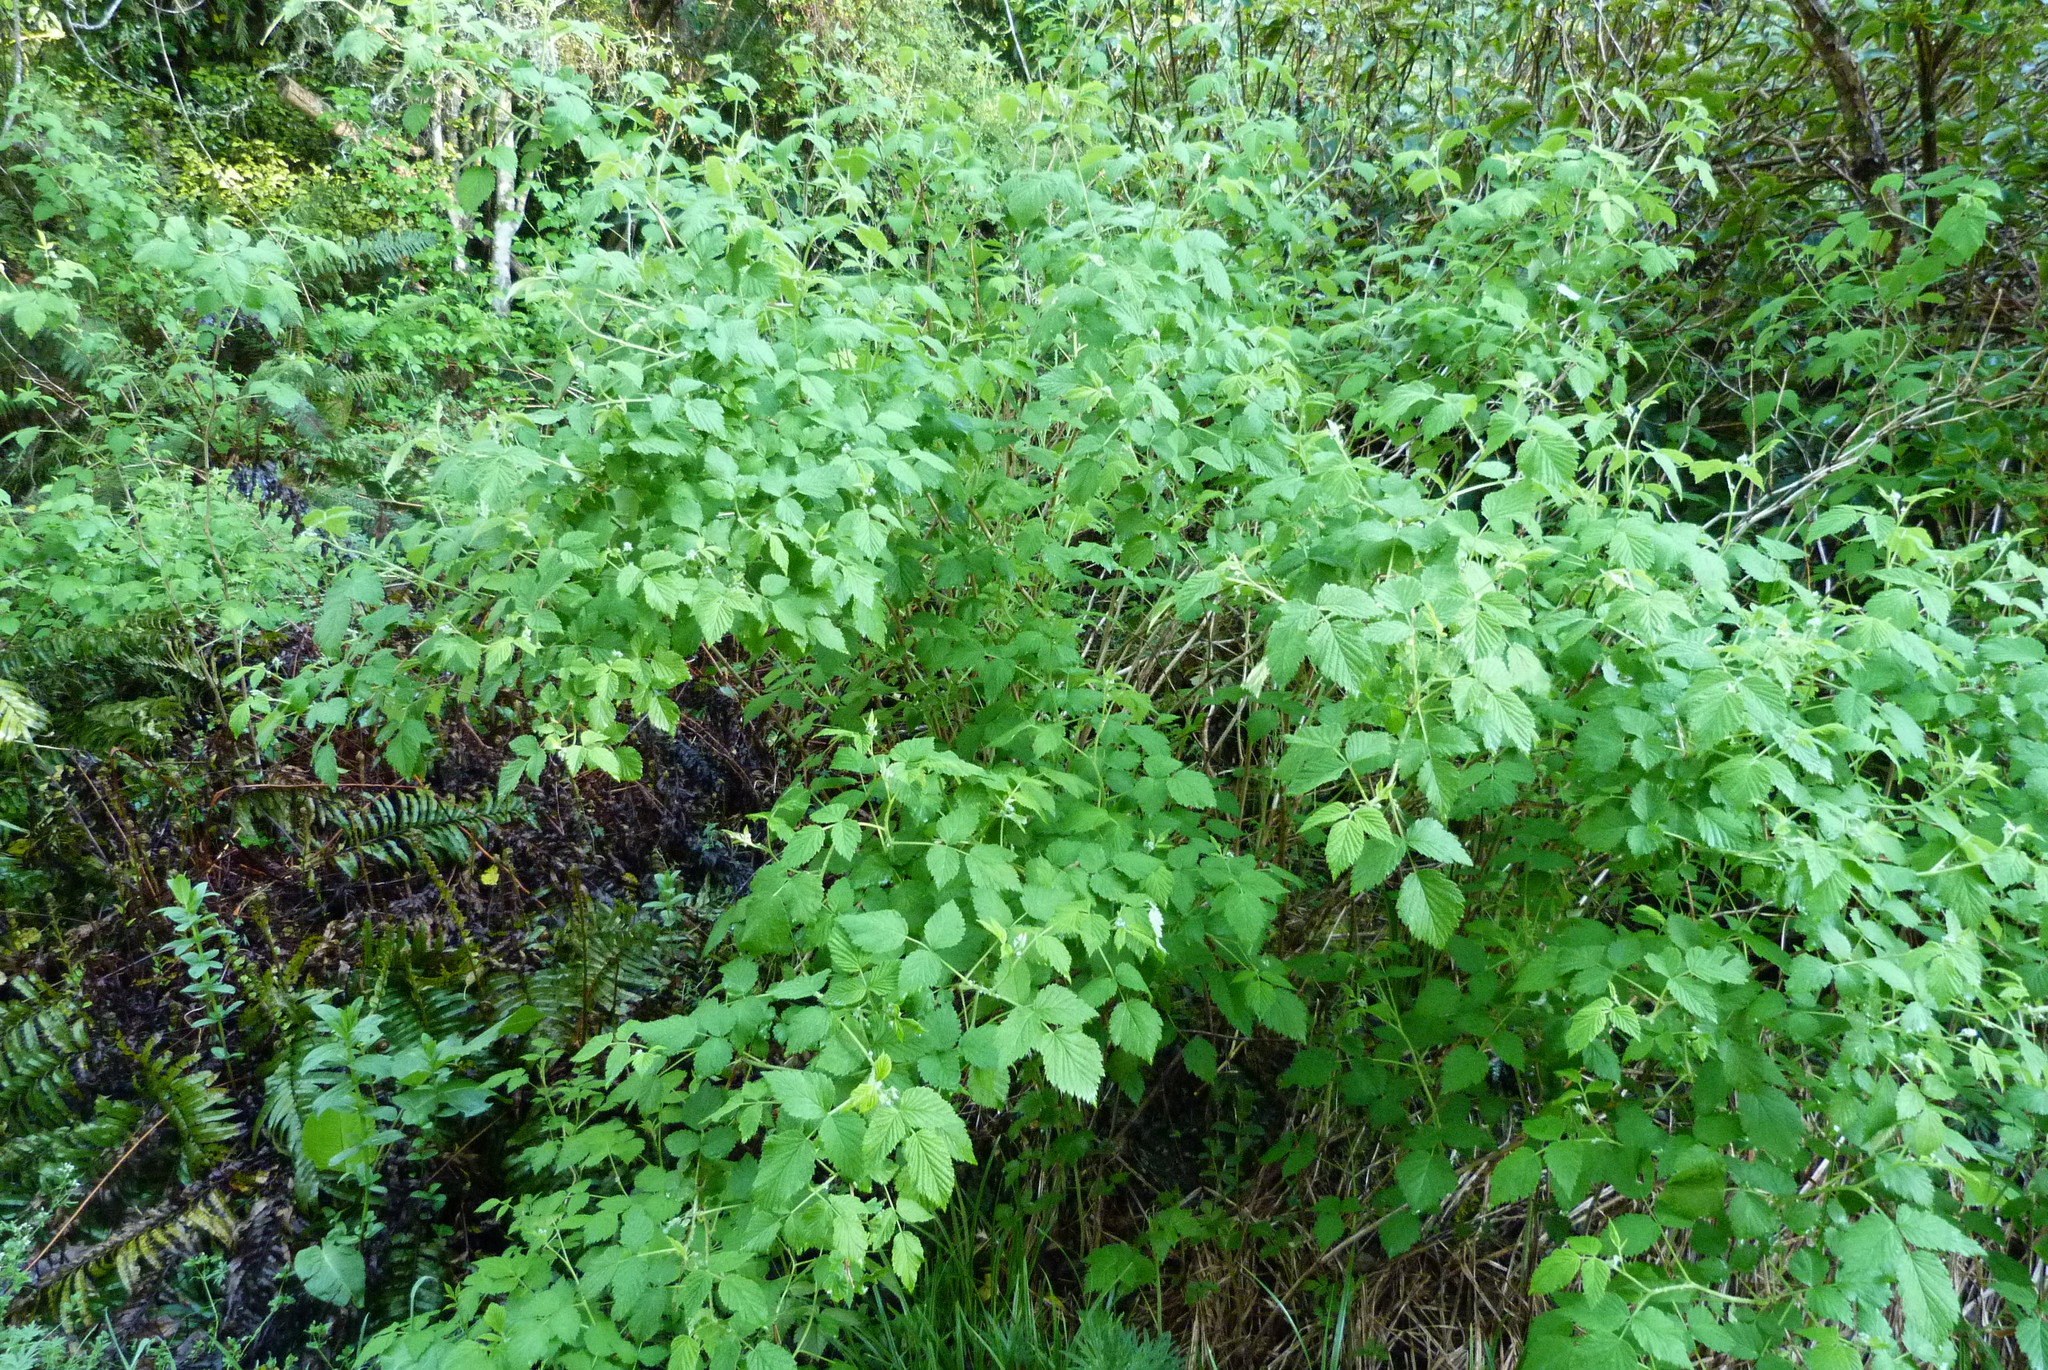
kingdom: Plantae
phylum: Tracheophyta
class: Magnoliopsida
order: Rosales
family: Rosaceae
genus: Rubus
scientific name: Rubus idaeus
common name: Raspberry
